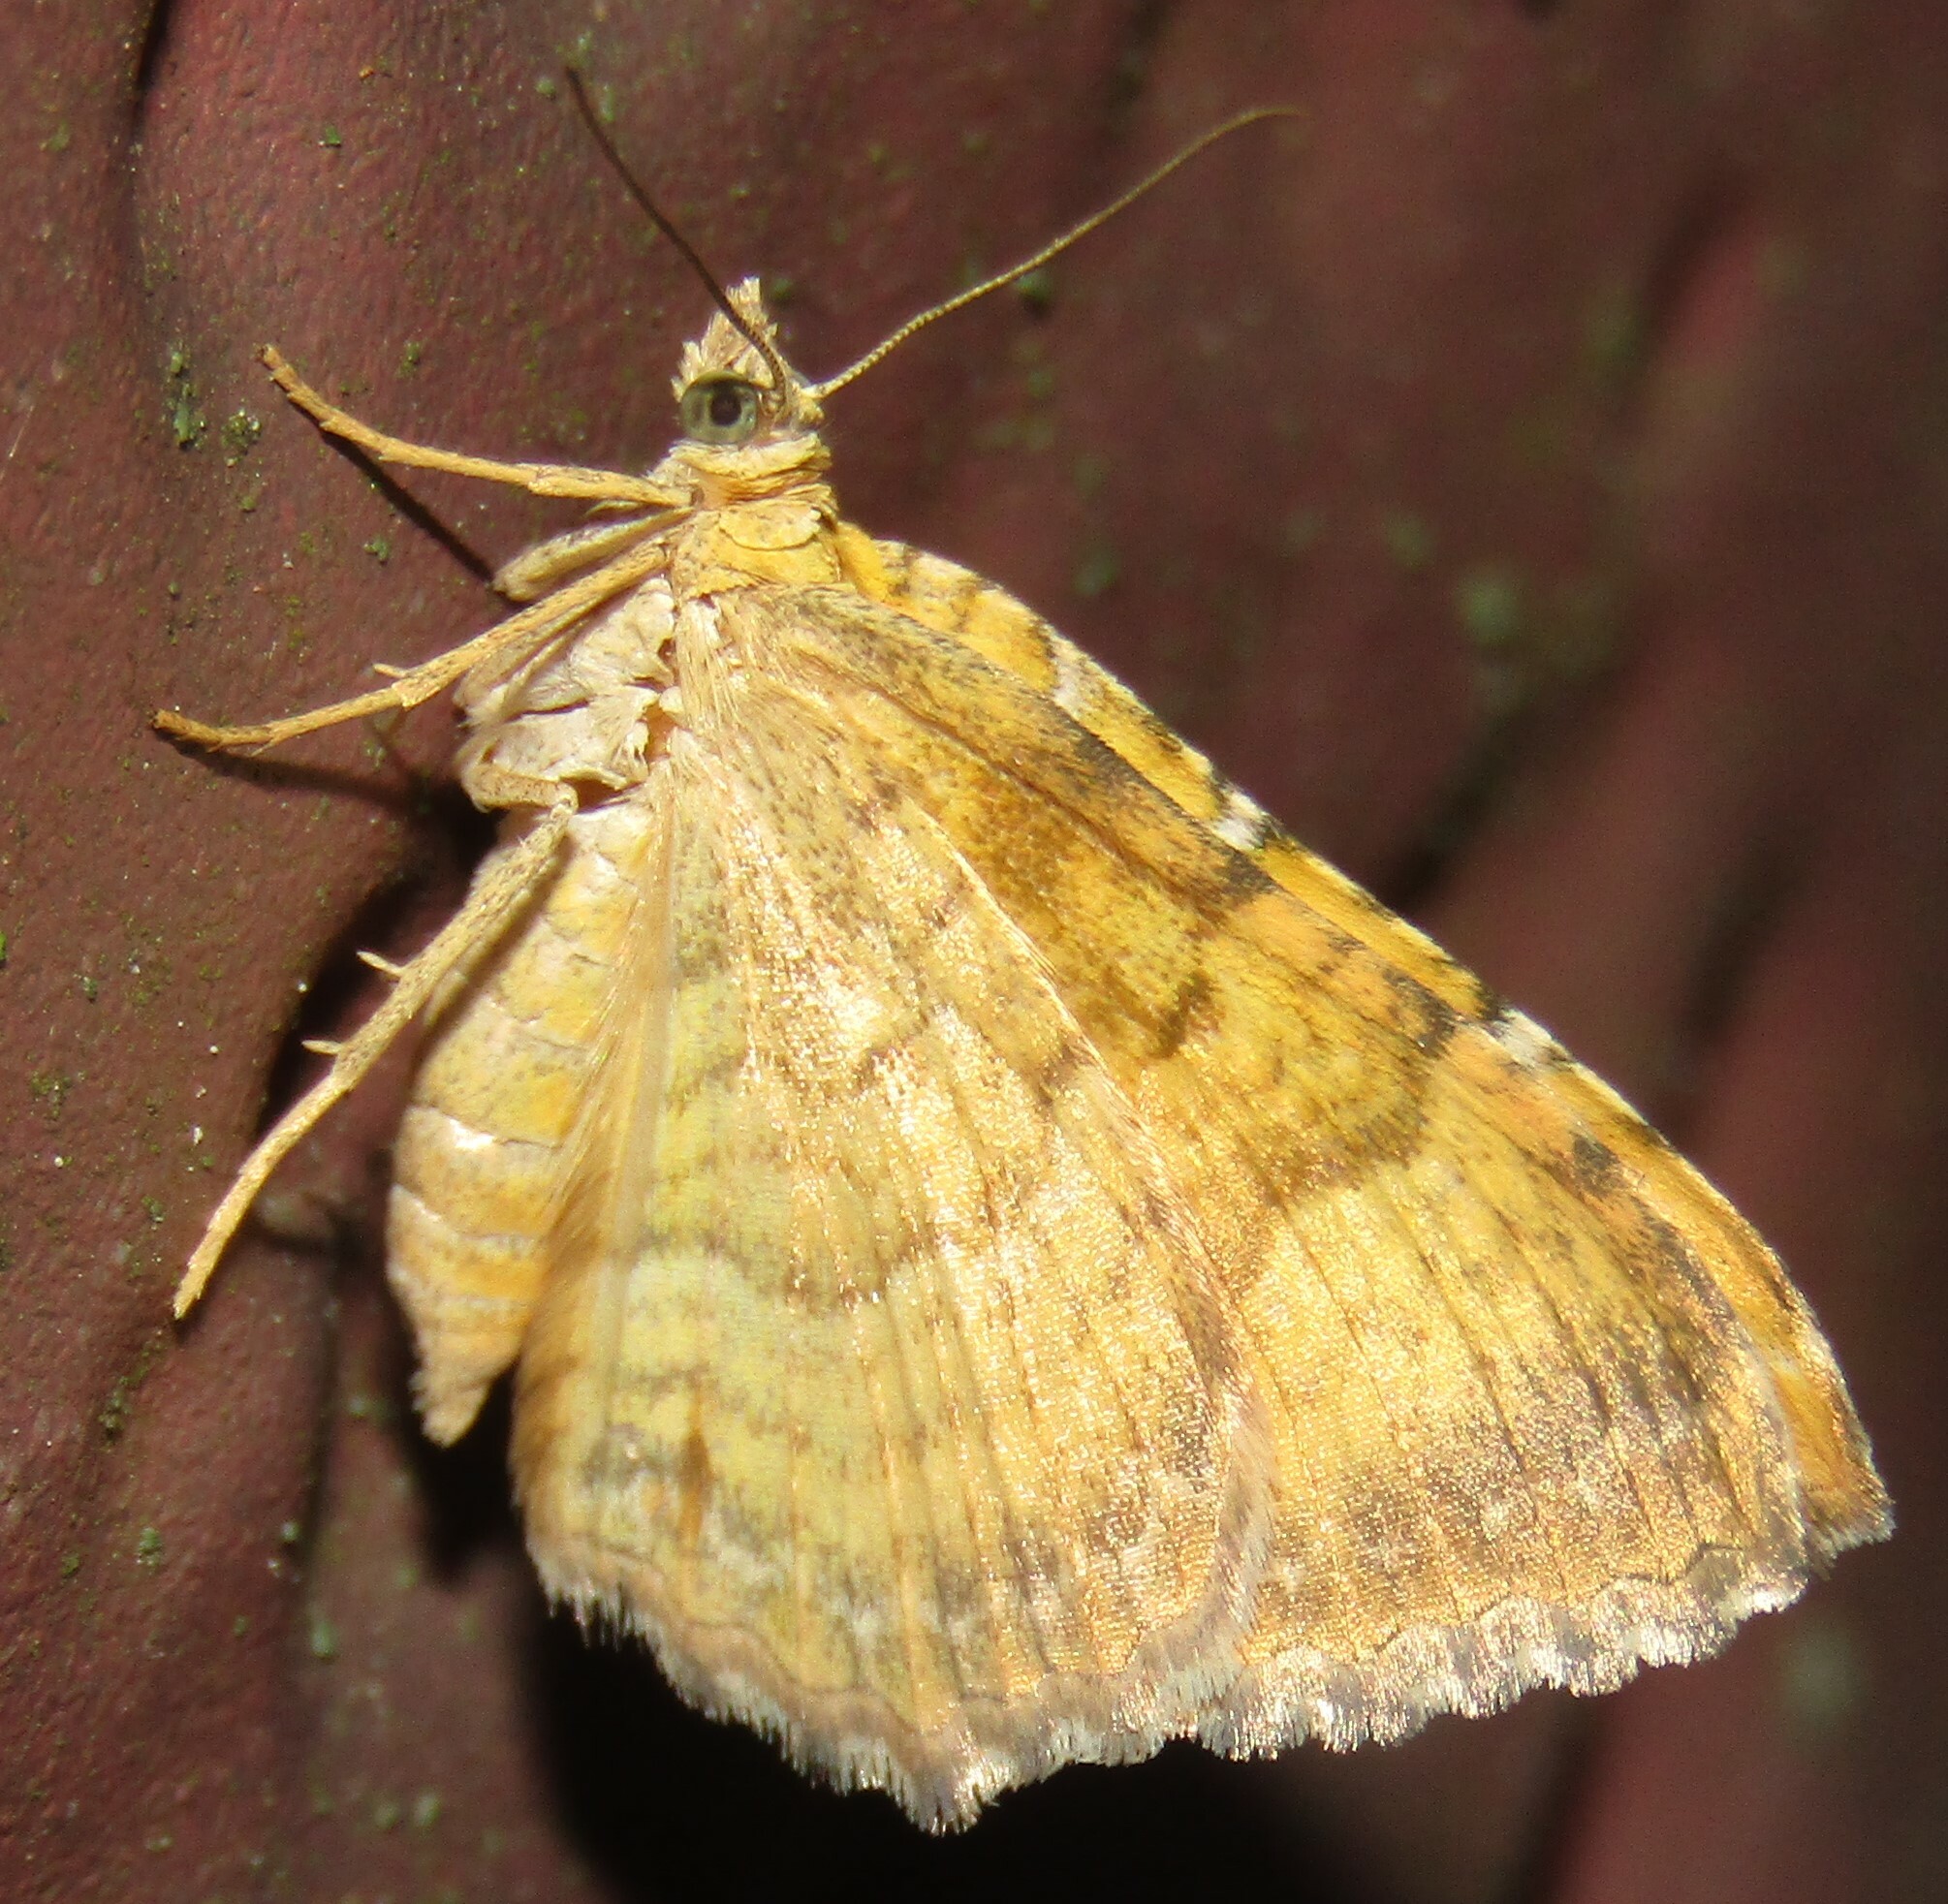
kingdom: Animalia
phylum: Arthropoda
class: Insecta
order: Lepidoptera
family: Geometridae
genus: Camptogramma
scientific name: Camptogramma bilineata
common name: Yellow shell
